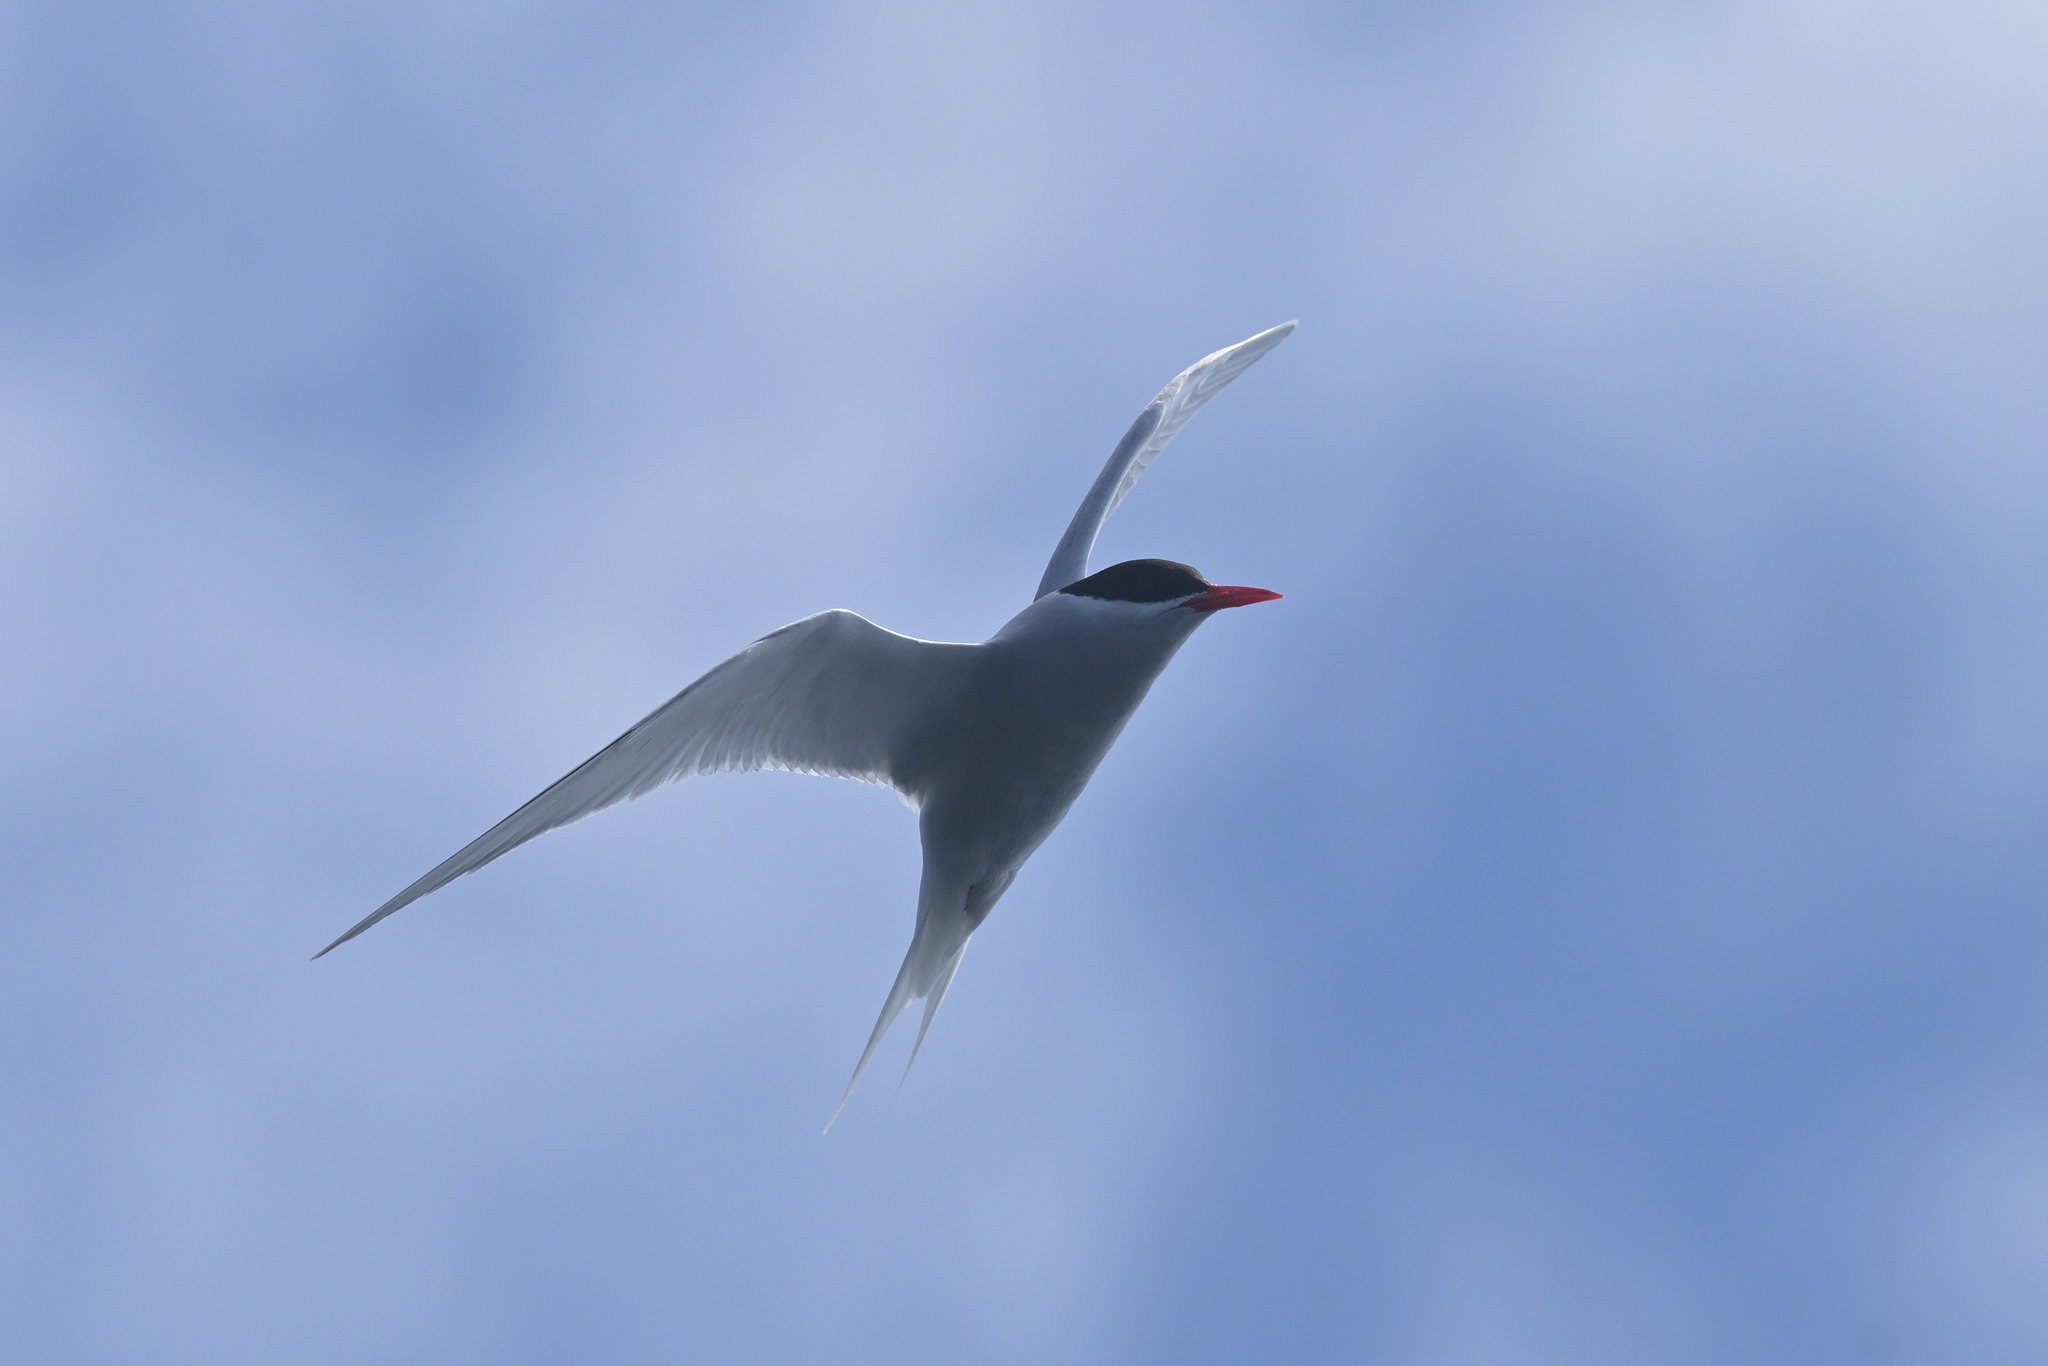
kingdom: Animalia
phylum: Chordata
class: Aves
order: Charadriiformes
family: Laridae
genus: Sterna
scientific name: Sterna vittata
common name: Antarctic tern
